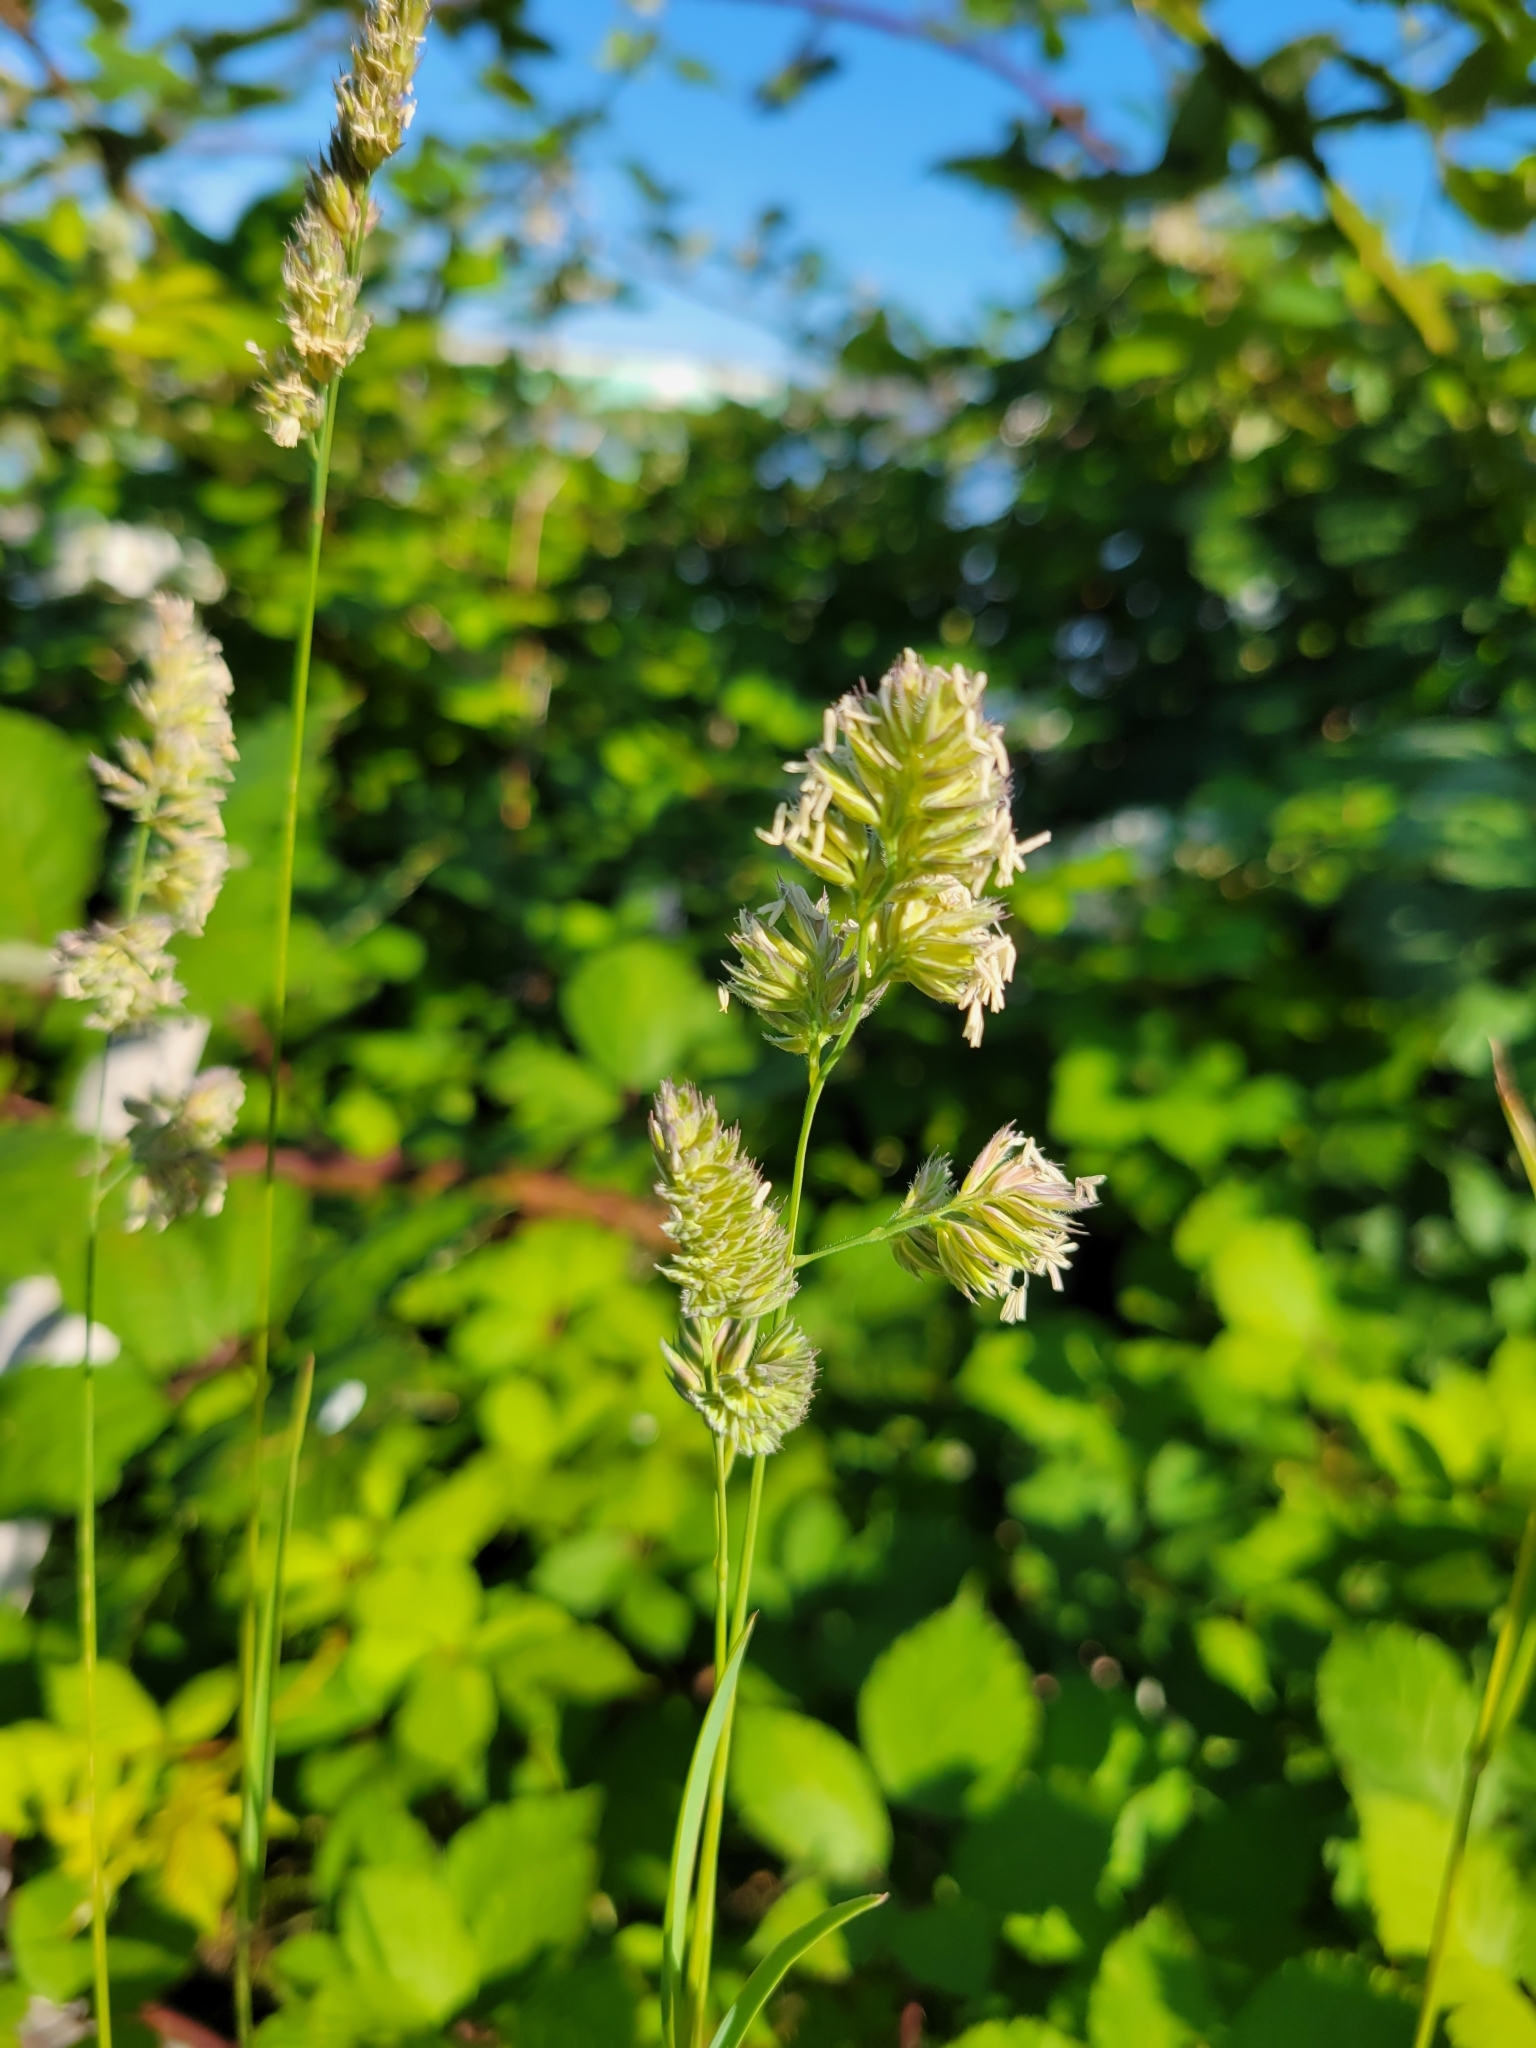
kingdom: Plantae
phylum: Tracheophyta
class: Liliopsida
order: Poales
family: Poaceae
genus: Dactylis
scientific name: Dactylis glomerata
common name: Orchardgrass
